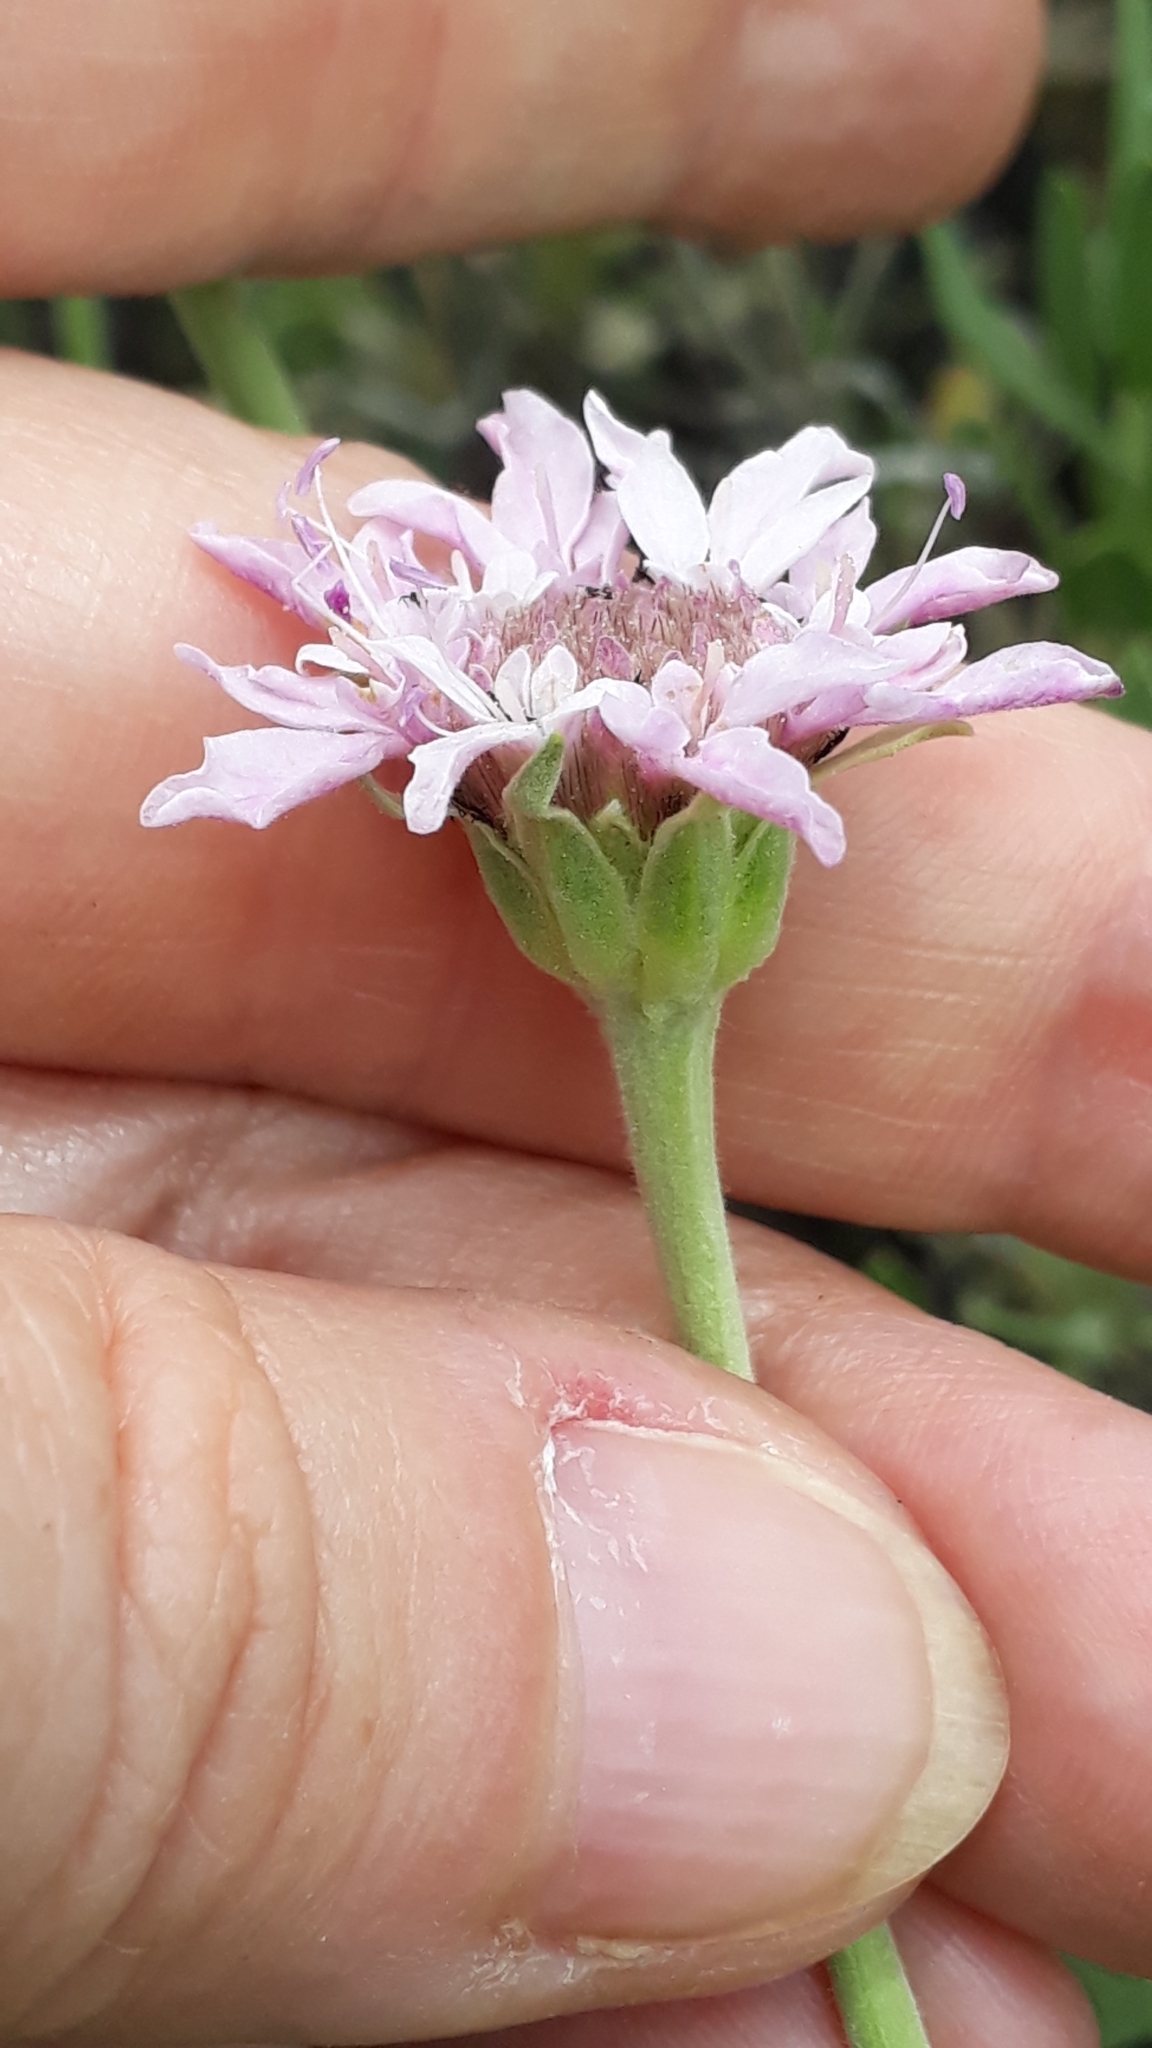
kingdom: Plantae
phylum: Tracheophyta
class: Magnoliopsida
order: Dipsacales
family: Caprifoliaceae
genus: Pterocephalus
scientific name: Pterocephalus lasiospermus
